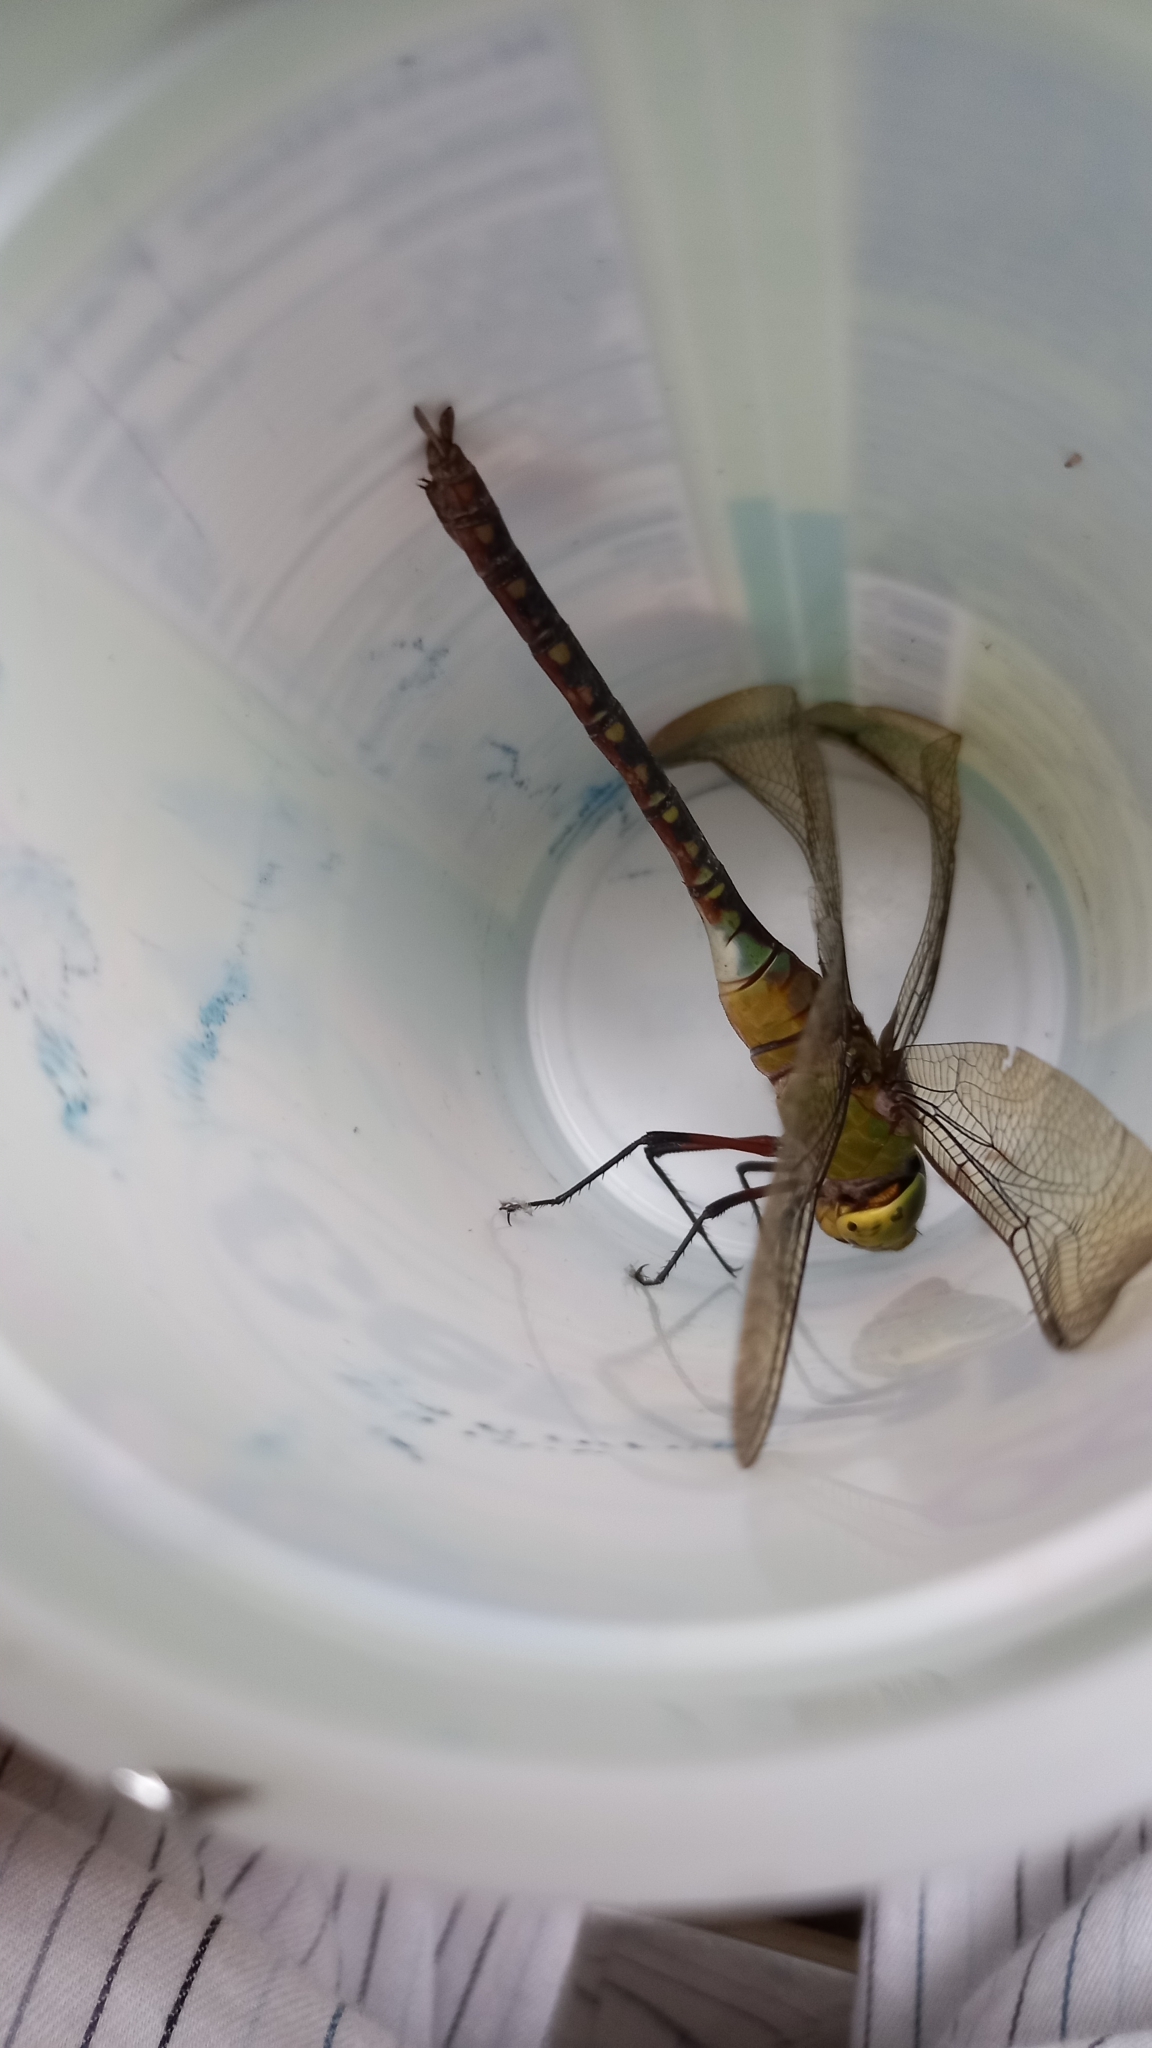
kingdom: Animalia
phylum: Arthropoda
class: Insecta
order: Odonata
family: Aeshnidae
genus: Anax
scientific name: Anax guttatus
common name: Emperor
